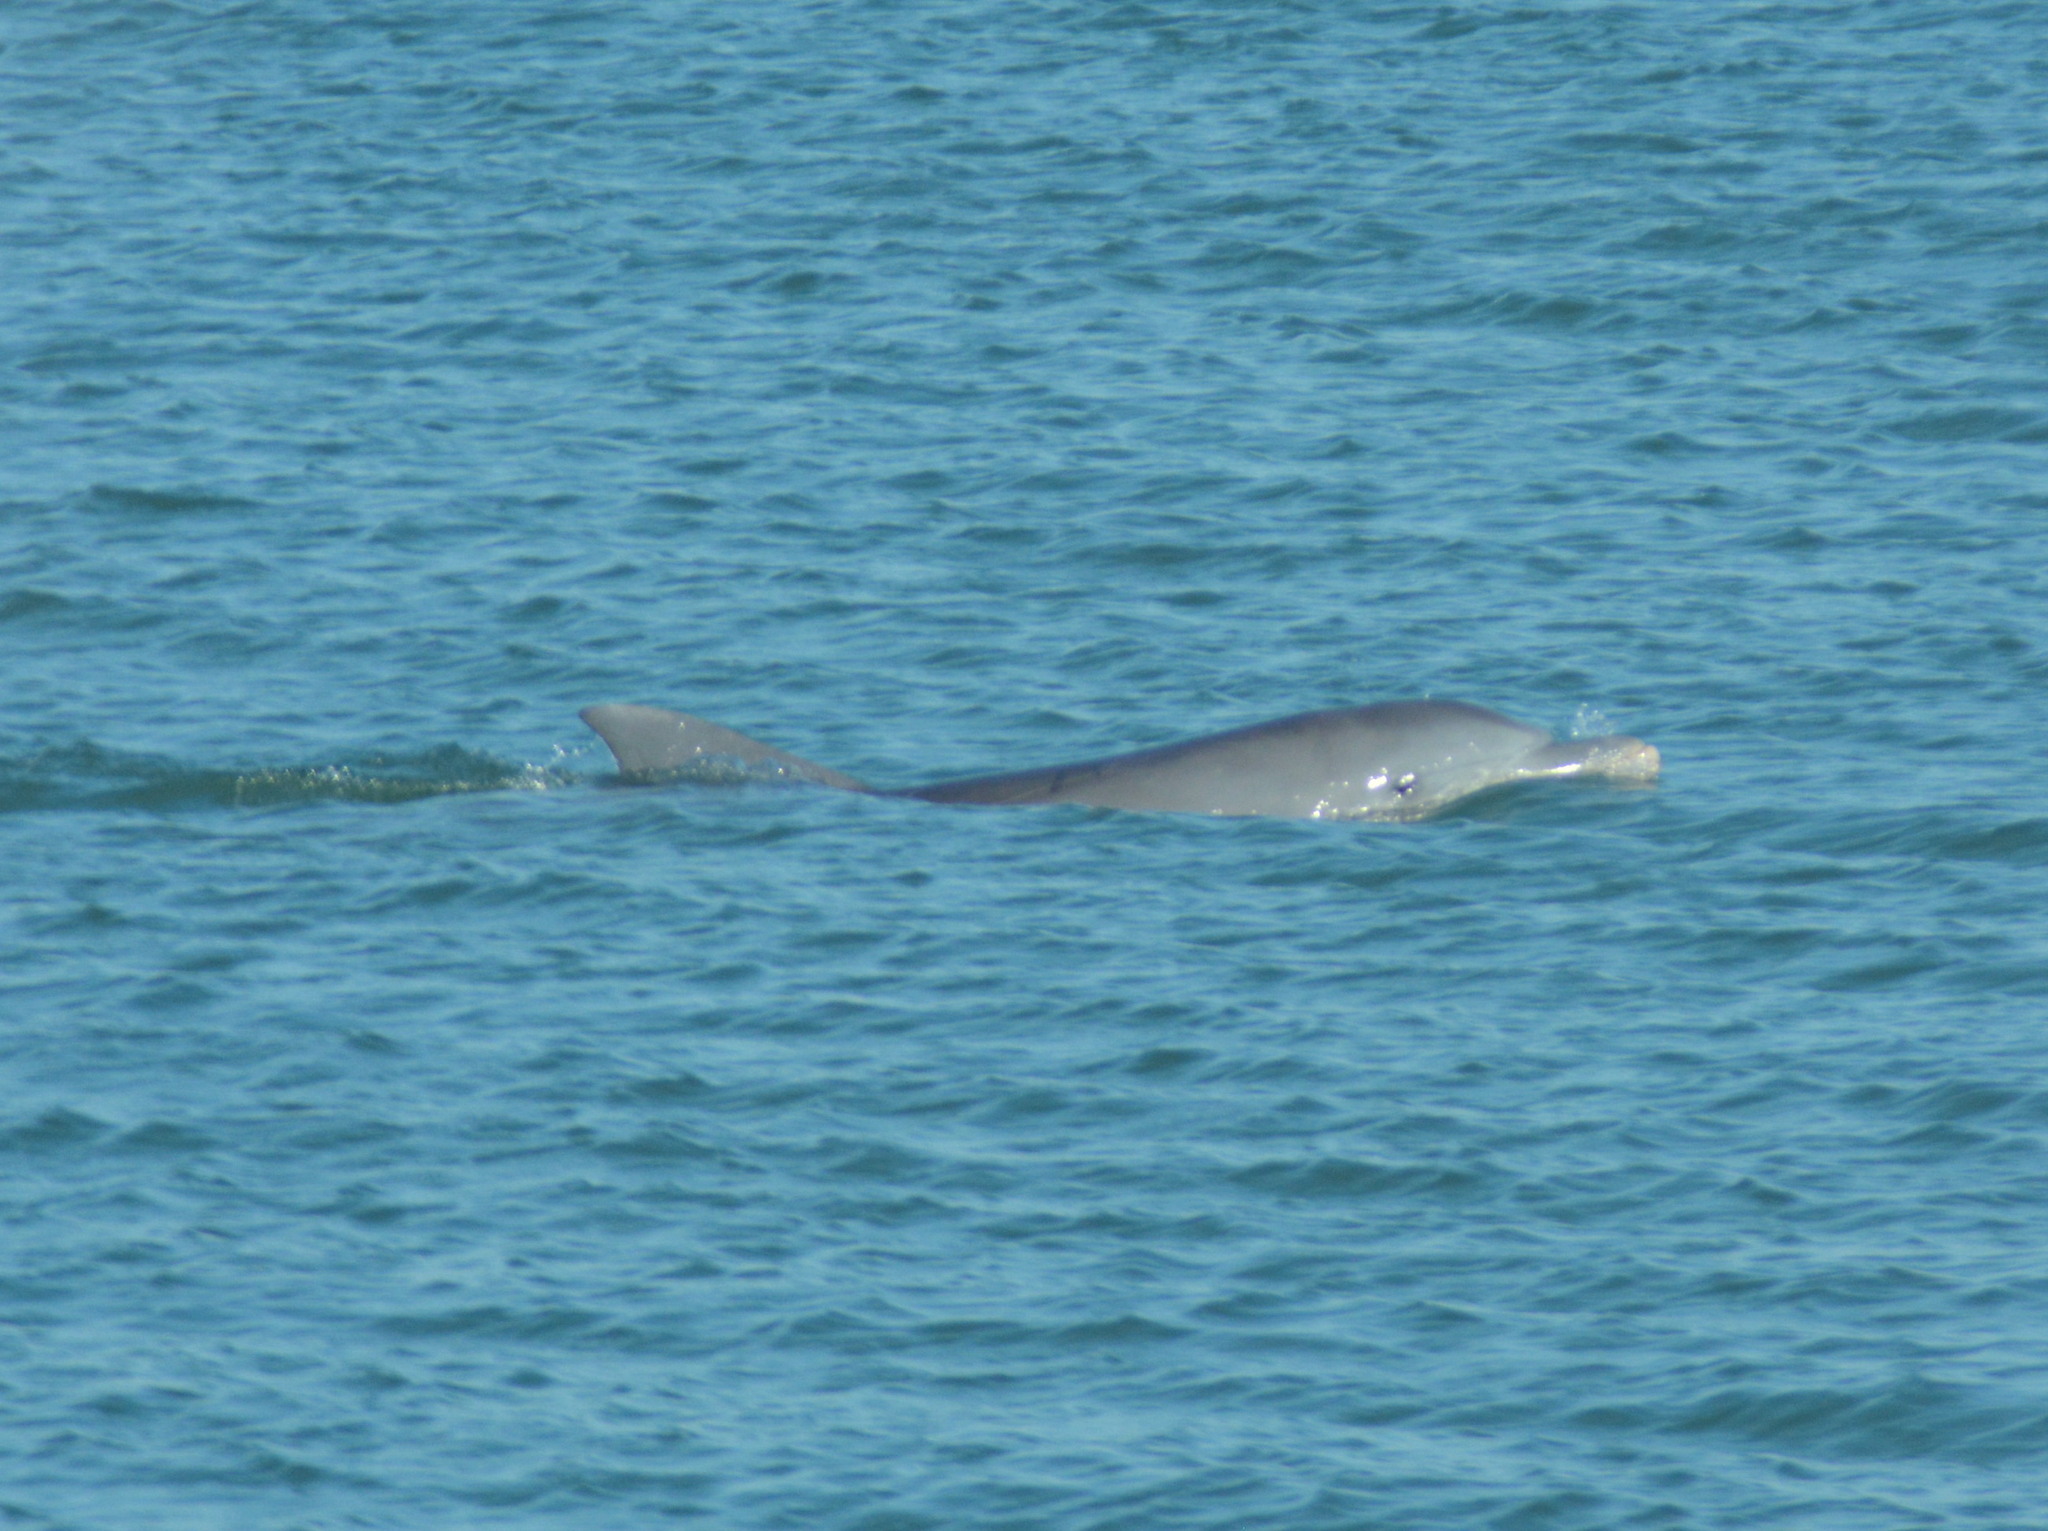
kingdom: Animalia
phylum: Chordata
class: Mammalia
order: Cetacea
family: Delphinidae
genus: Tursiops
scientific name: Tursiops truncatus
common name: Bottlenose dolphin
